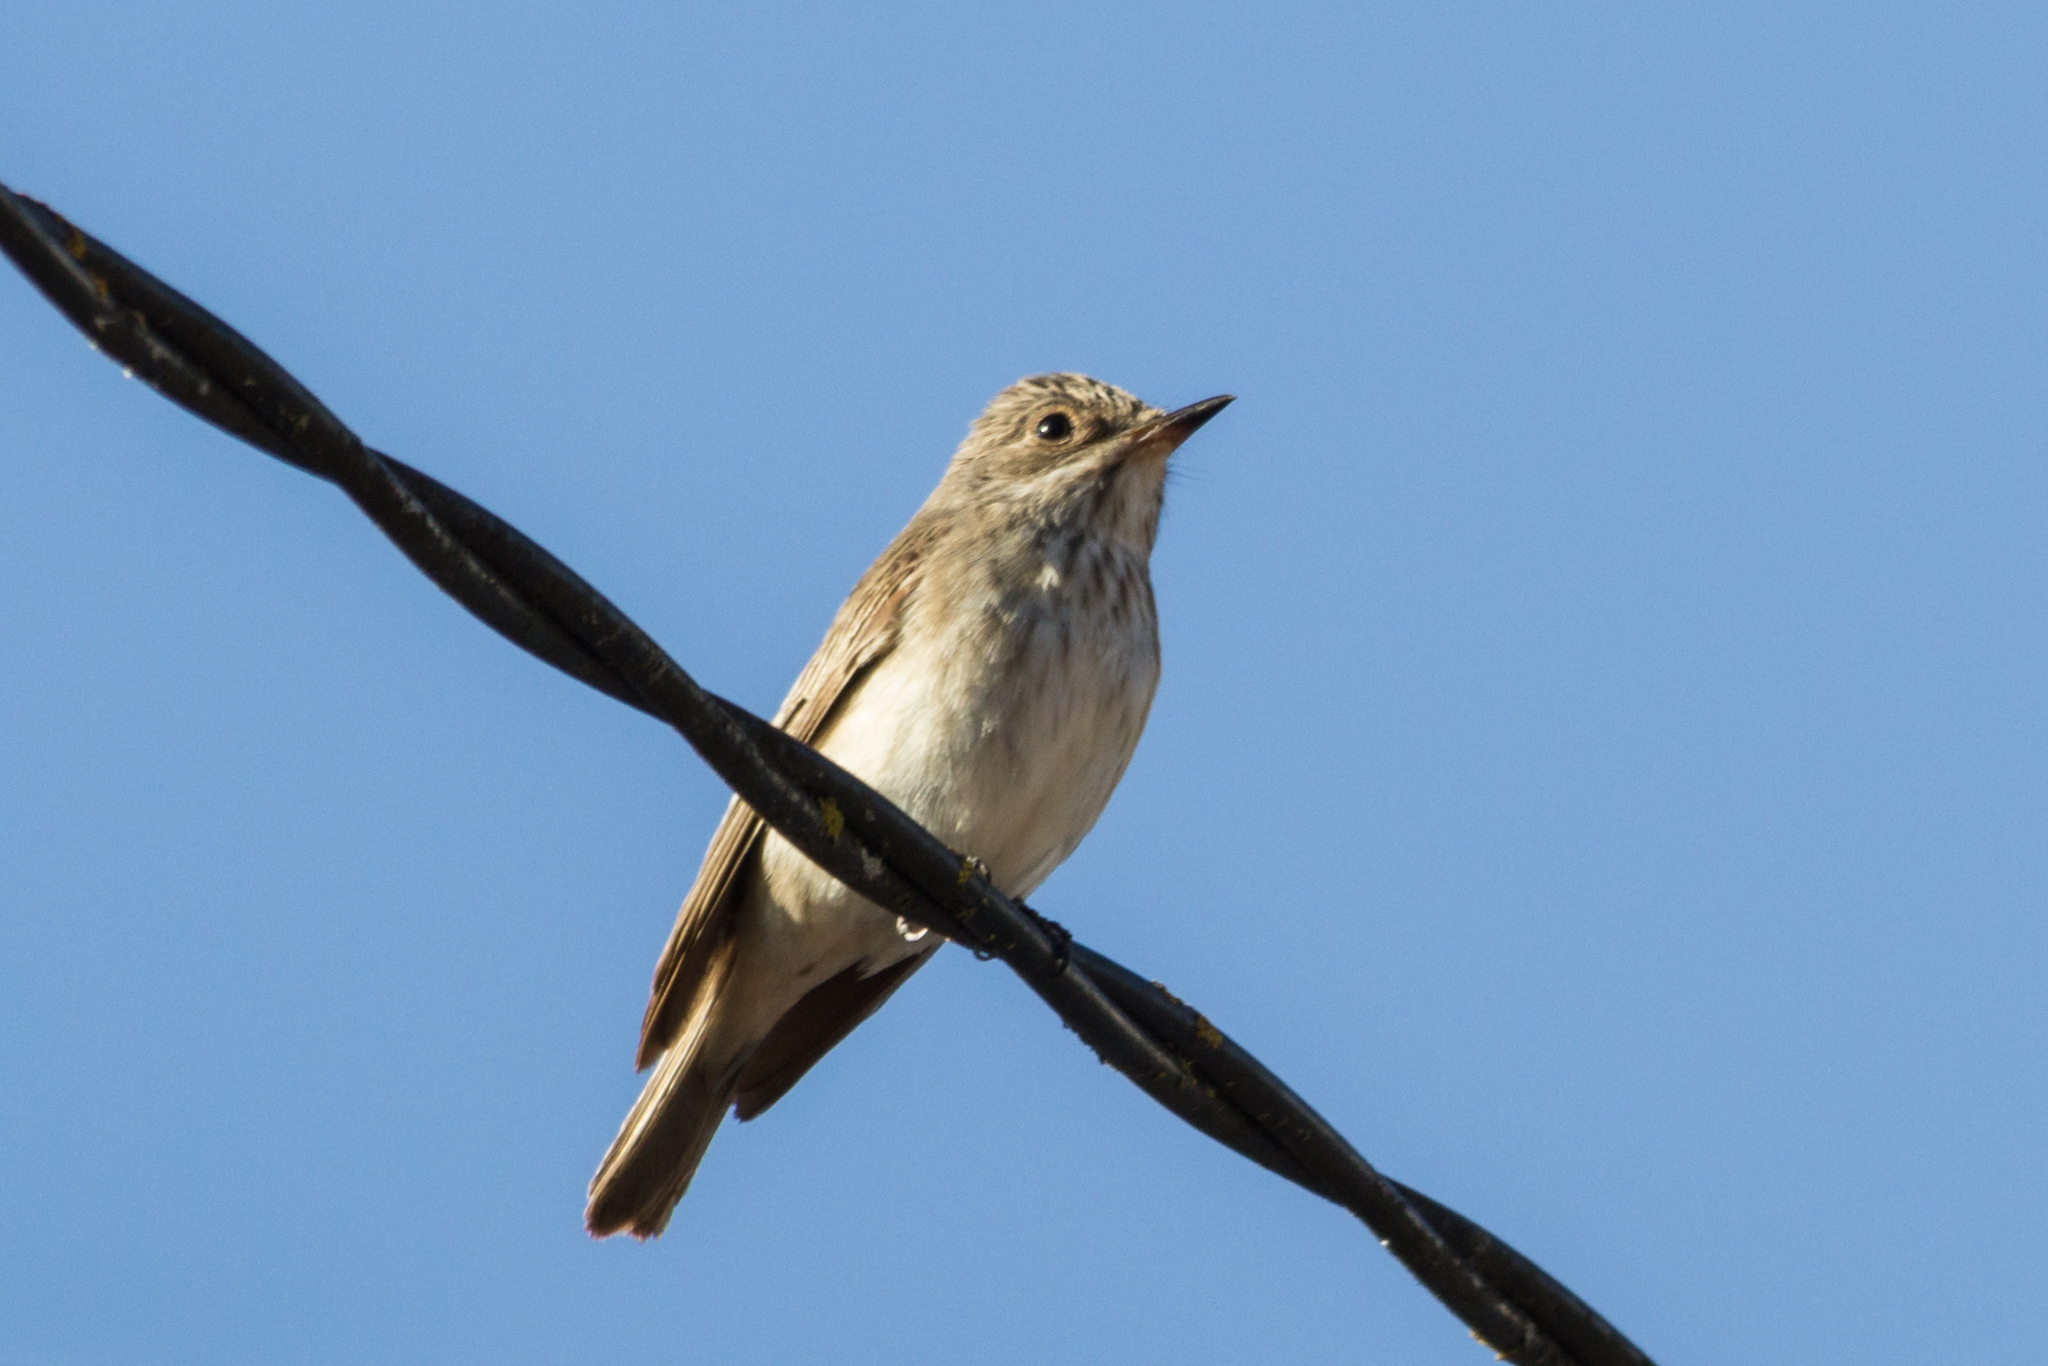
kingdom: Animalia
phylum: Chordata
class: Aves
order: Passeriformes
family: Muscicapidae
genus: Muscicapa
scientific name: Muscicapa striata
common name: Spotted flycatcher
